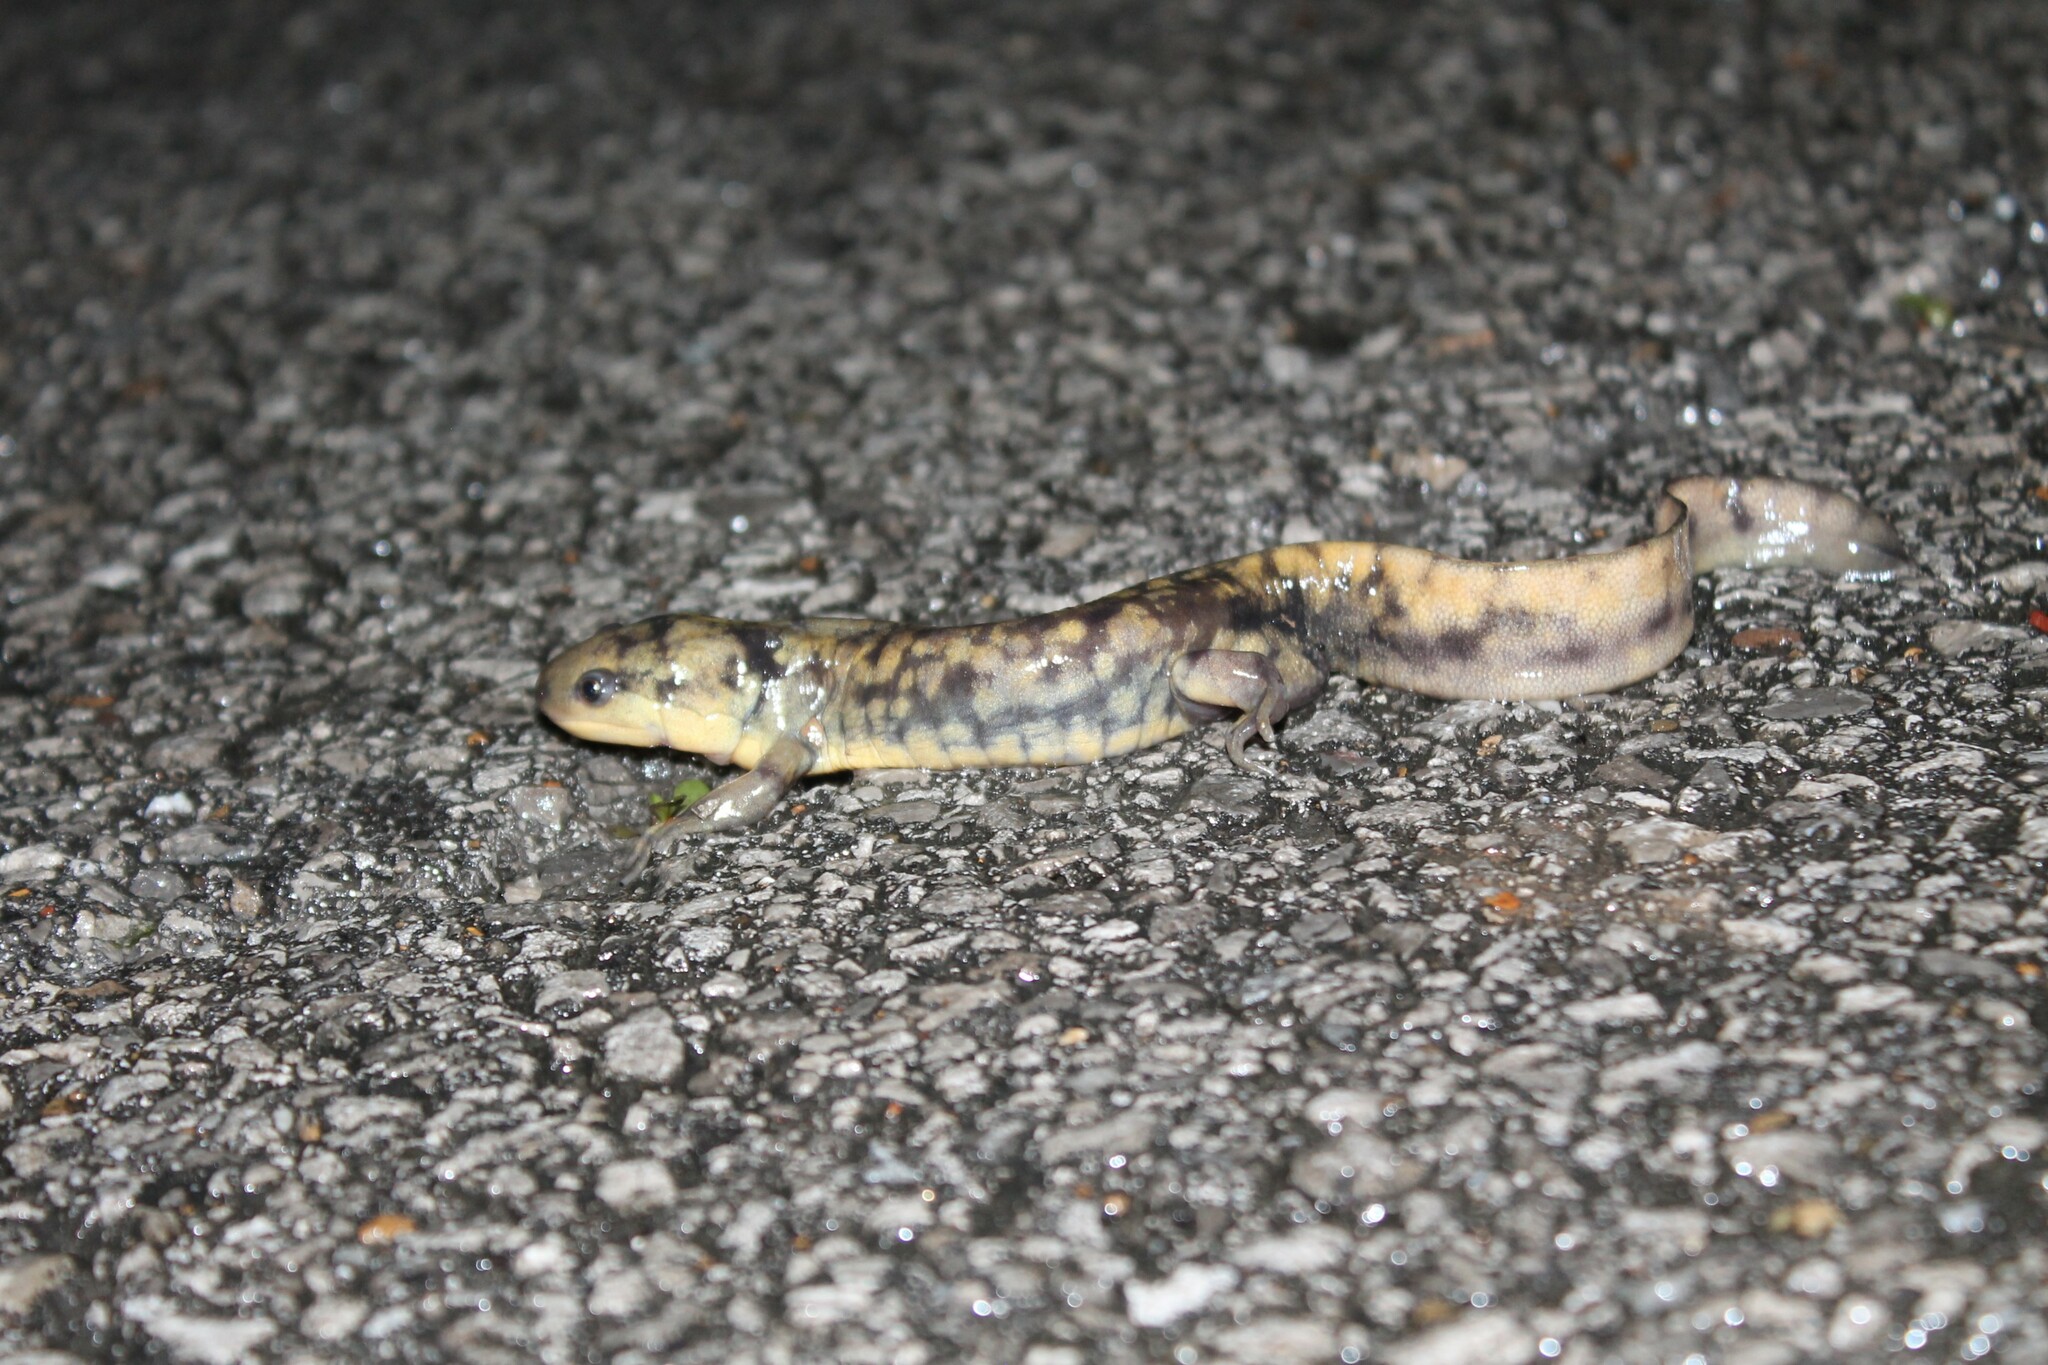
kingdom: Animalia
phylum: Chordata
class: Amphibia
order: Caudata
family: Ambystomatidae
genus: Ambystoma
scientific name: Ambystoma tigrinum
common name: Tiger salamander
